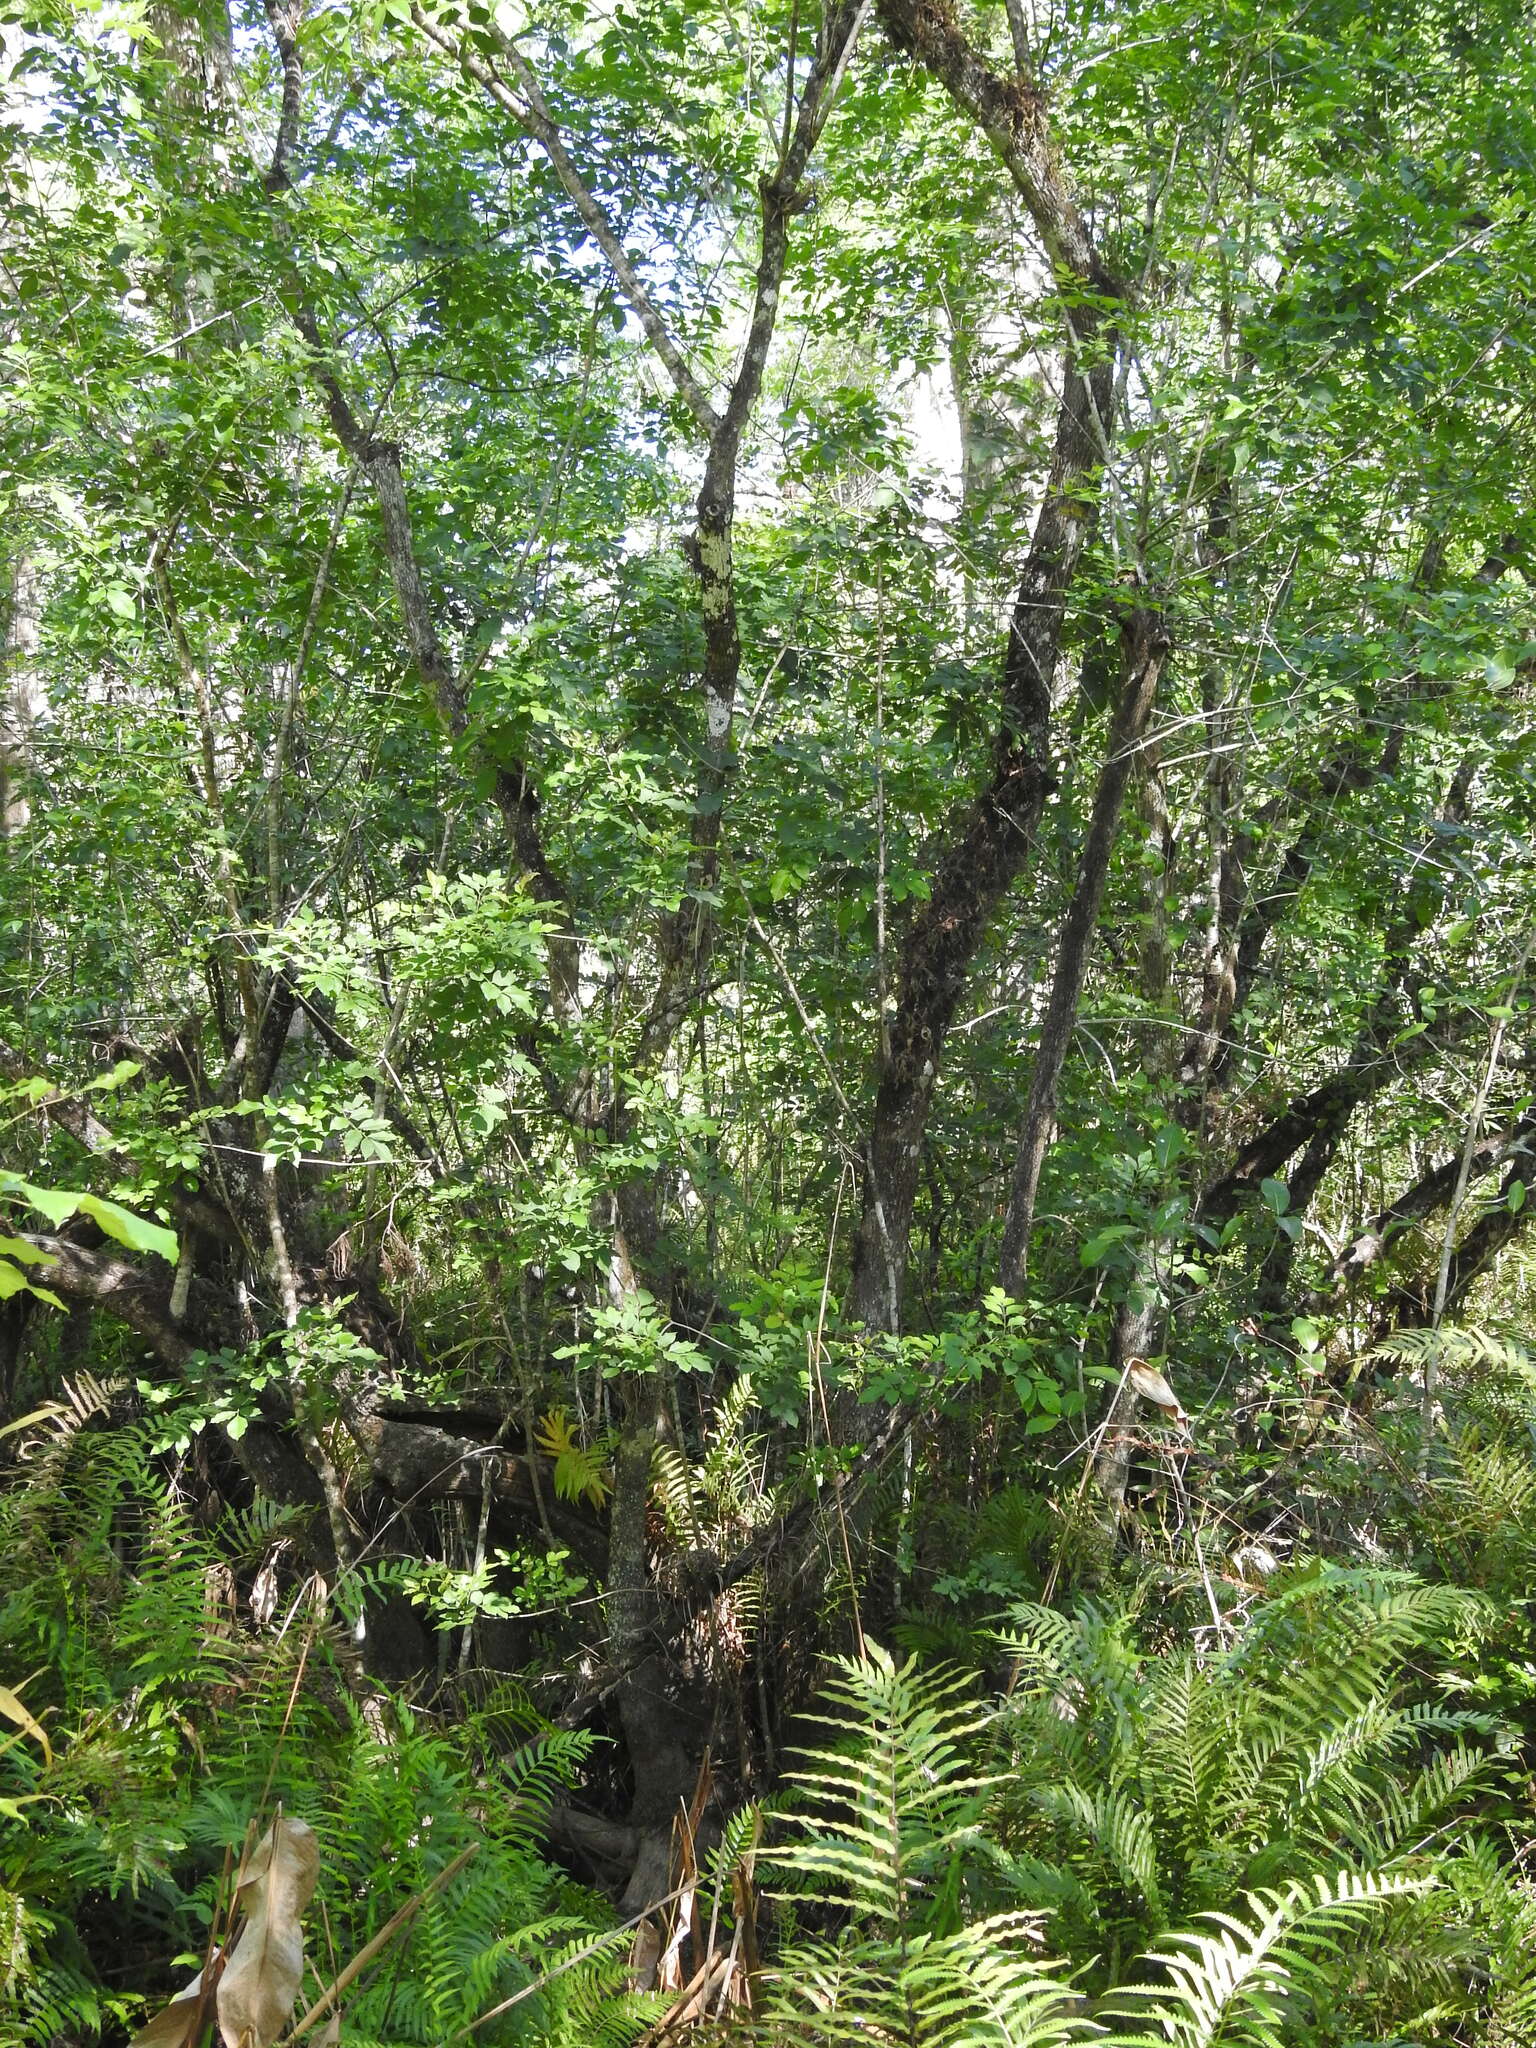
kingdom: Plantae
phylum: Tracheophyta
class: Magnoliopsida
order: Lamiales
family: Oleaceae
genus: Fraxinus
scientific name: Fraxinus caroliniana
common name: Carolina ash
